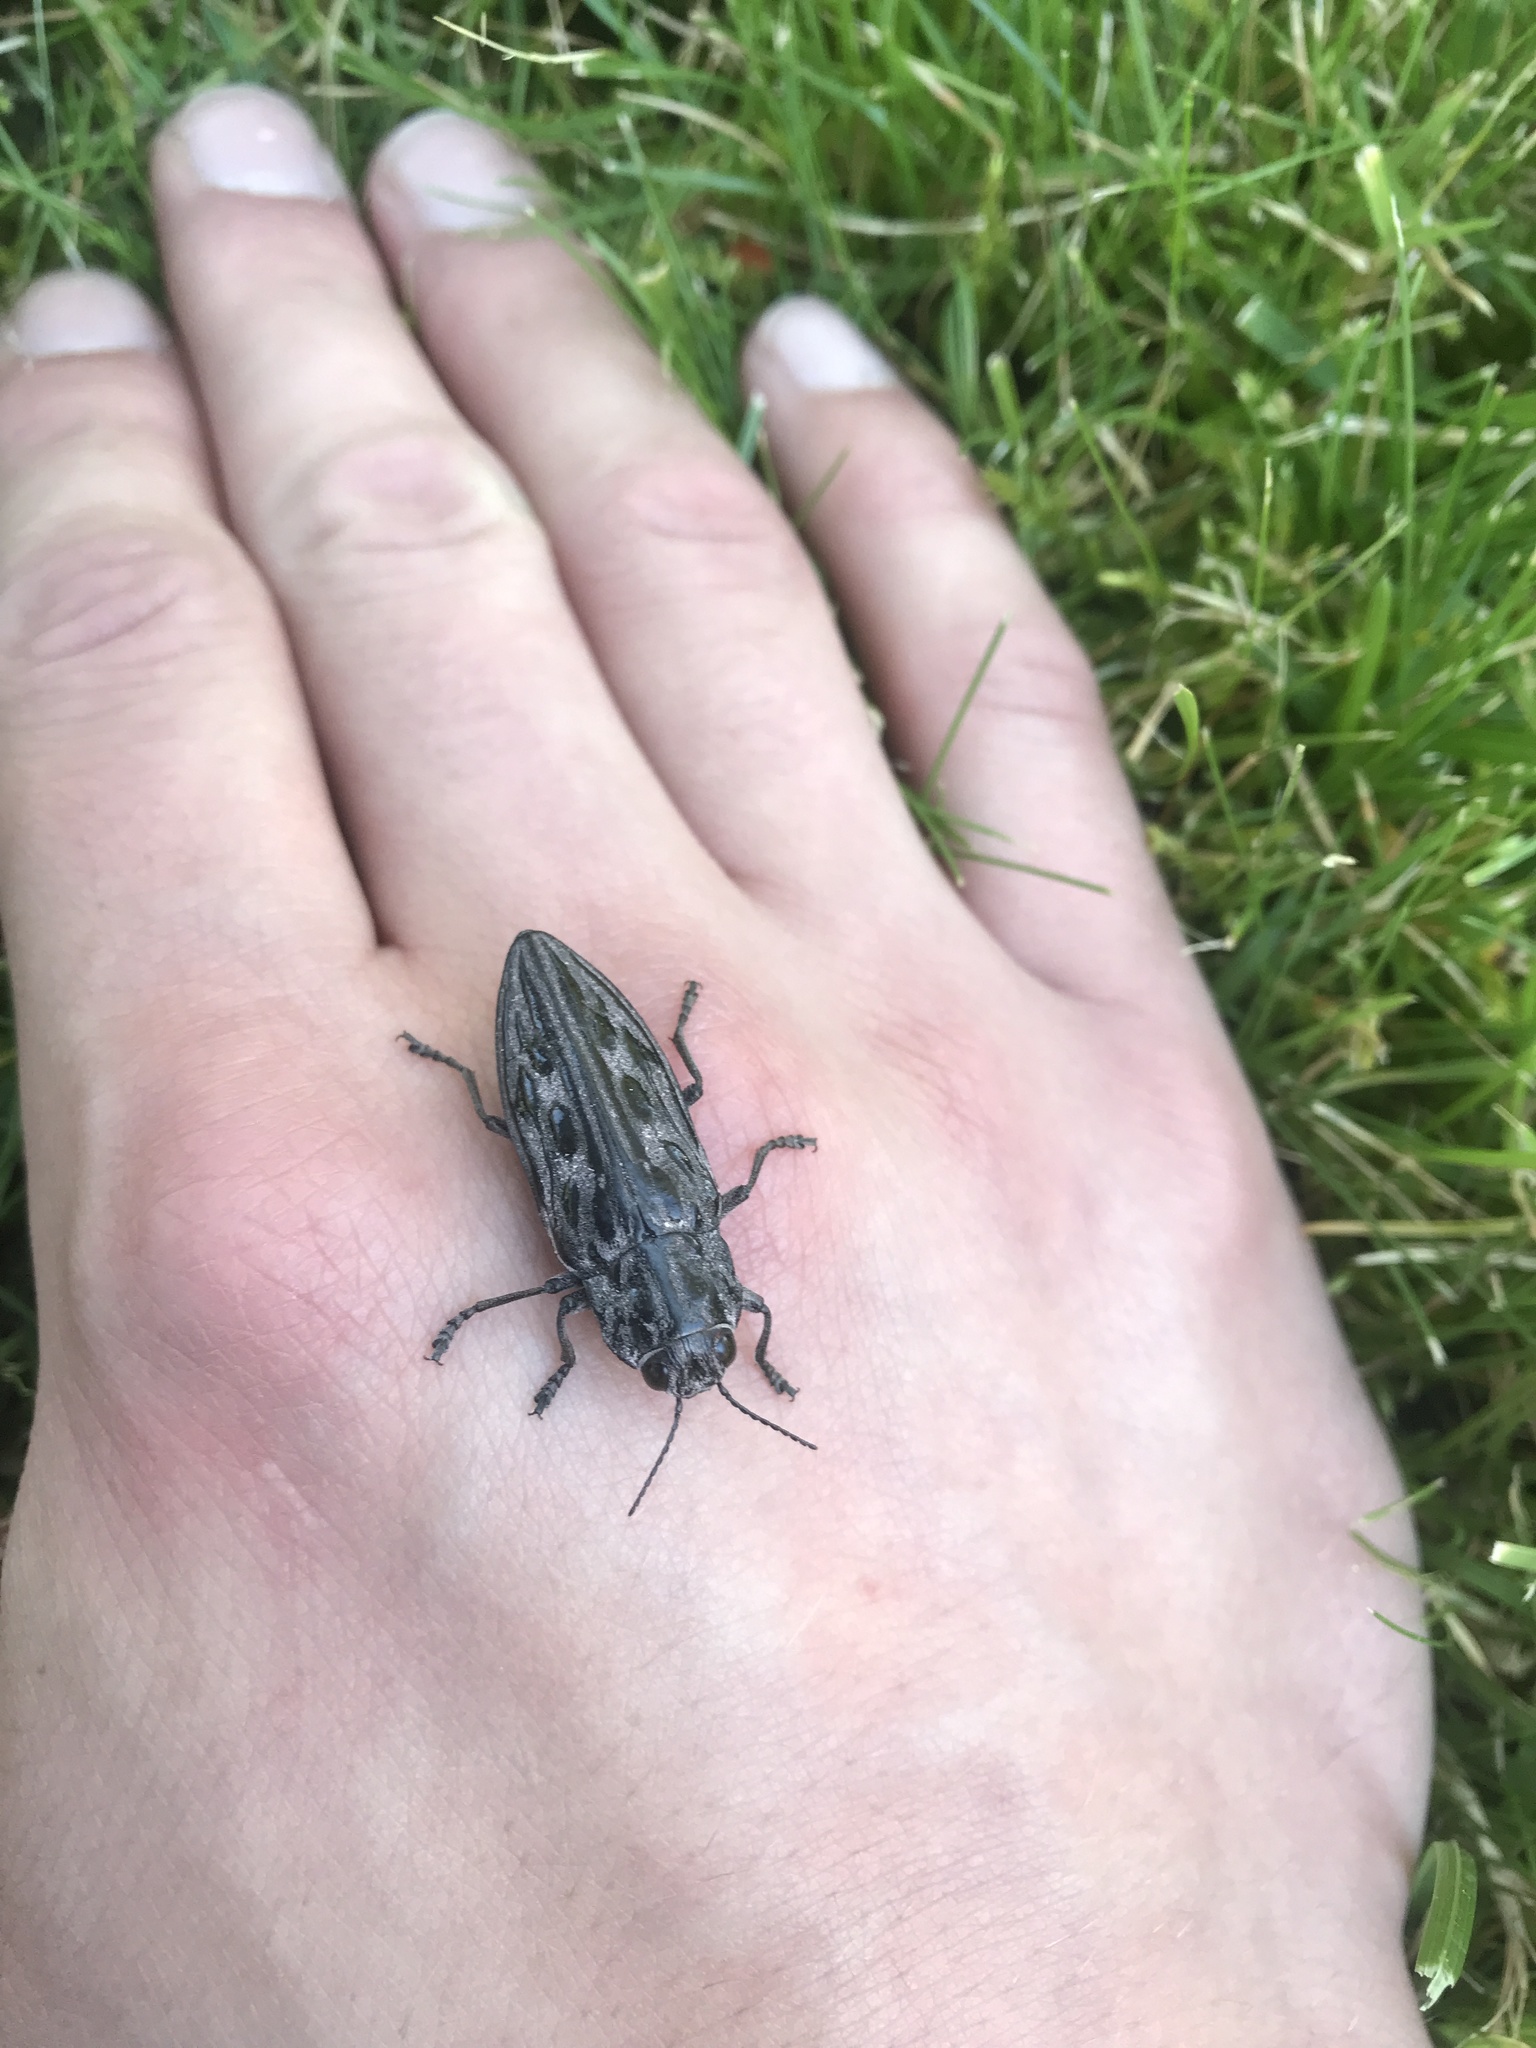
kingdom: Animalia
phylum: Arthropoda
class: Insecta
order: Coleoptera
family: Buprestidae
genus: Chalcophora
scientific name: Chalcophora angulicollis
